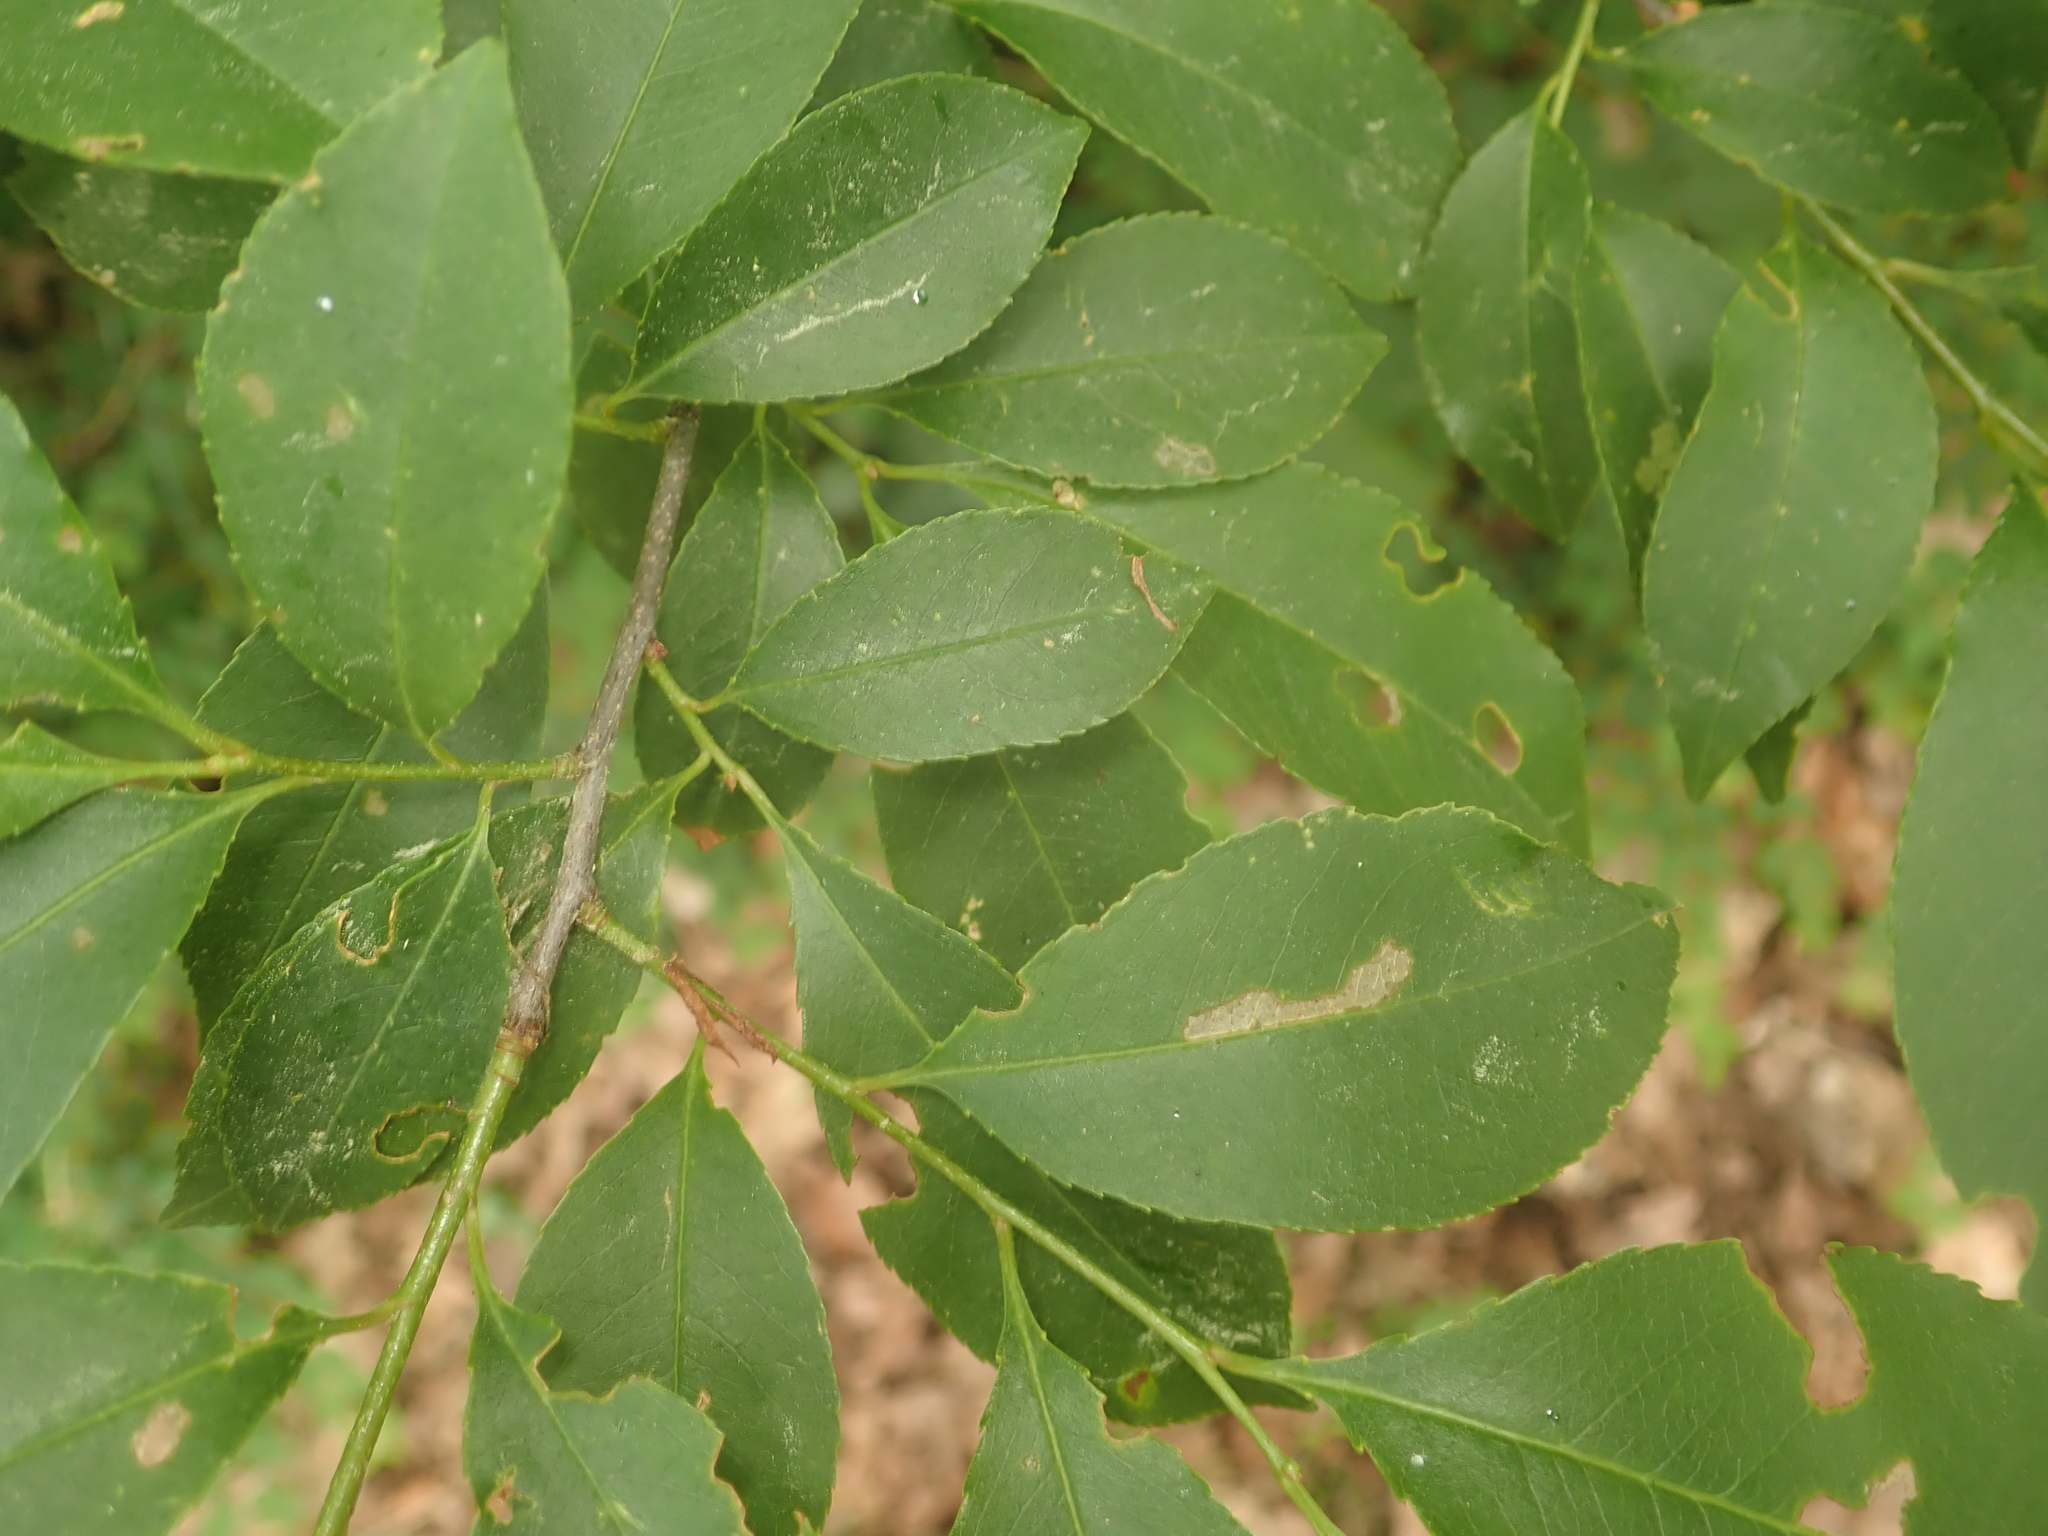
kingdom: Plantae
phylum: Tracheophyta
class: Magnoliopsida
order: Rosales
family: Rosaceae
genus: Prunus
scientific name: Prunus serotina
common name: Black cherry
